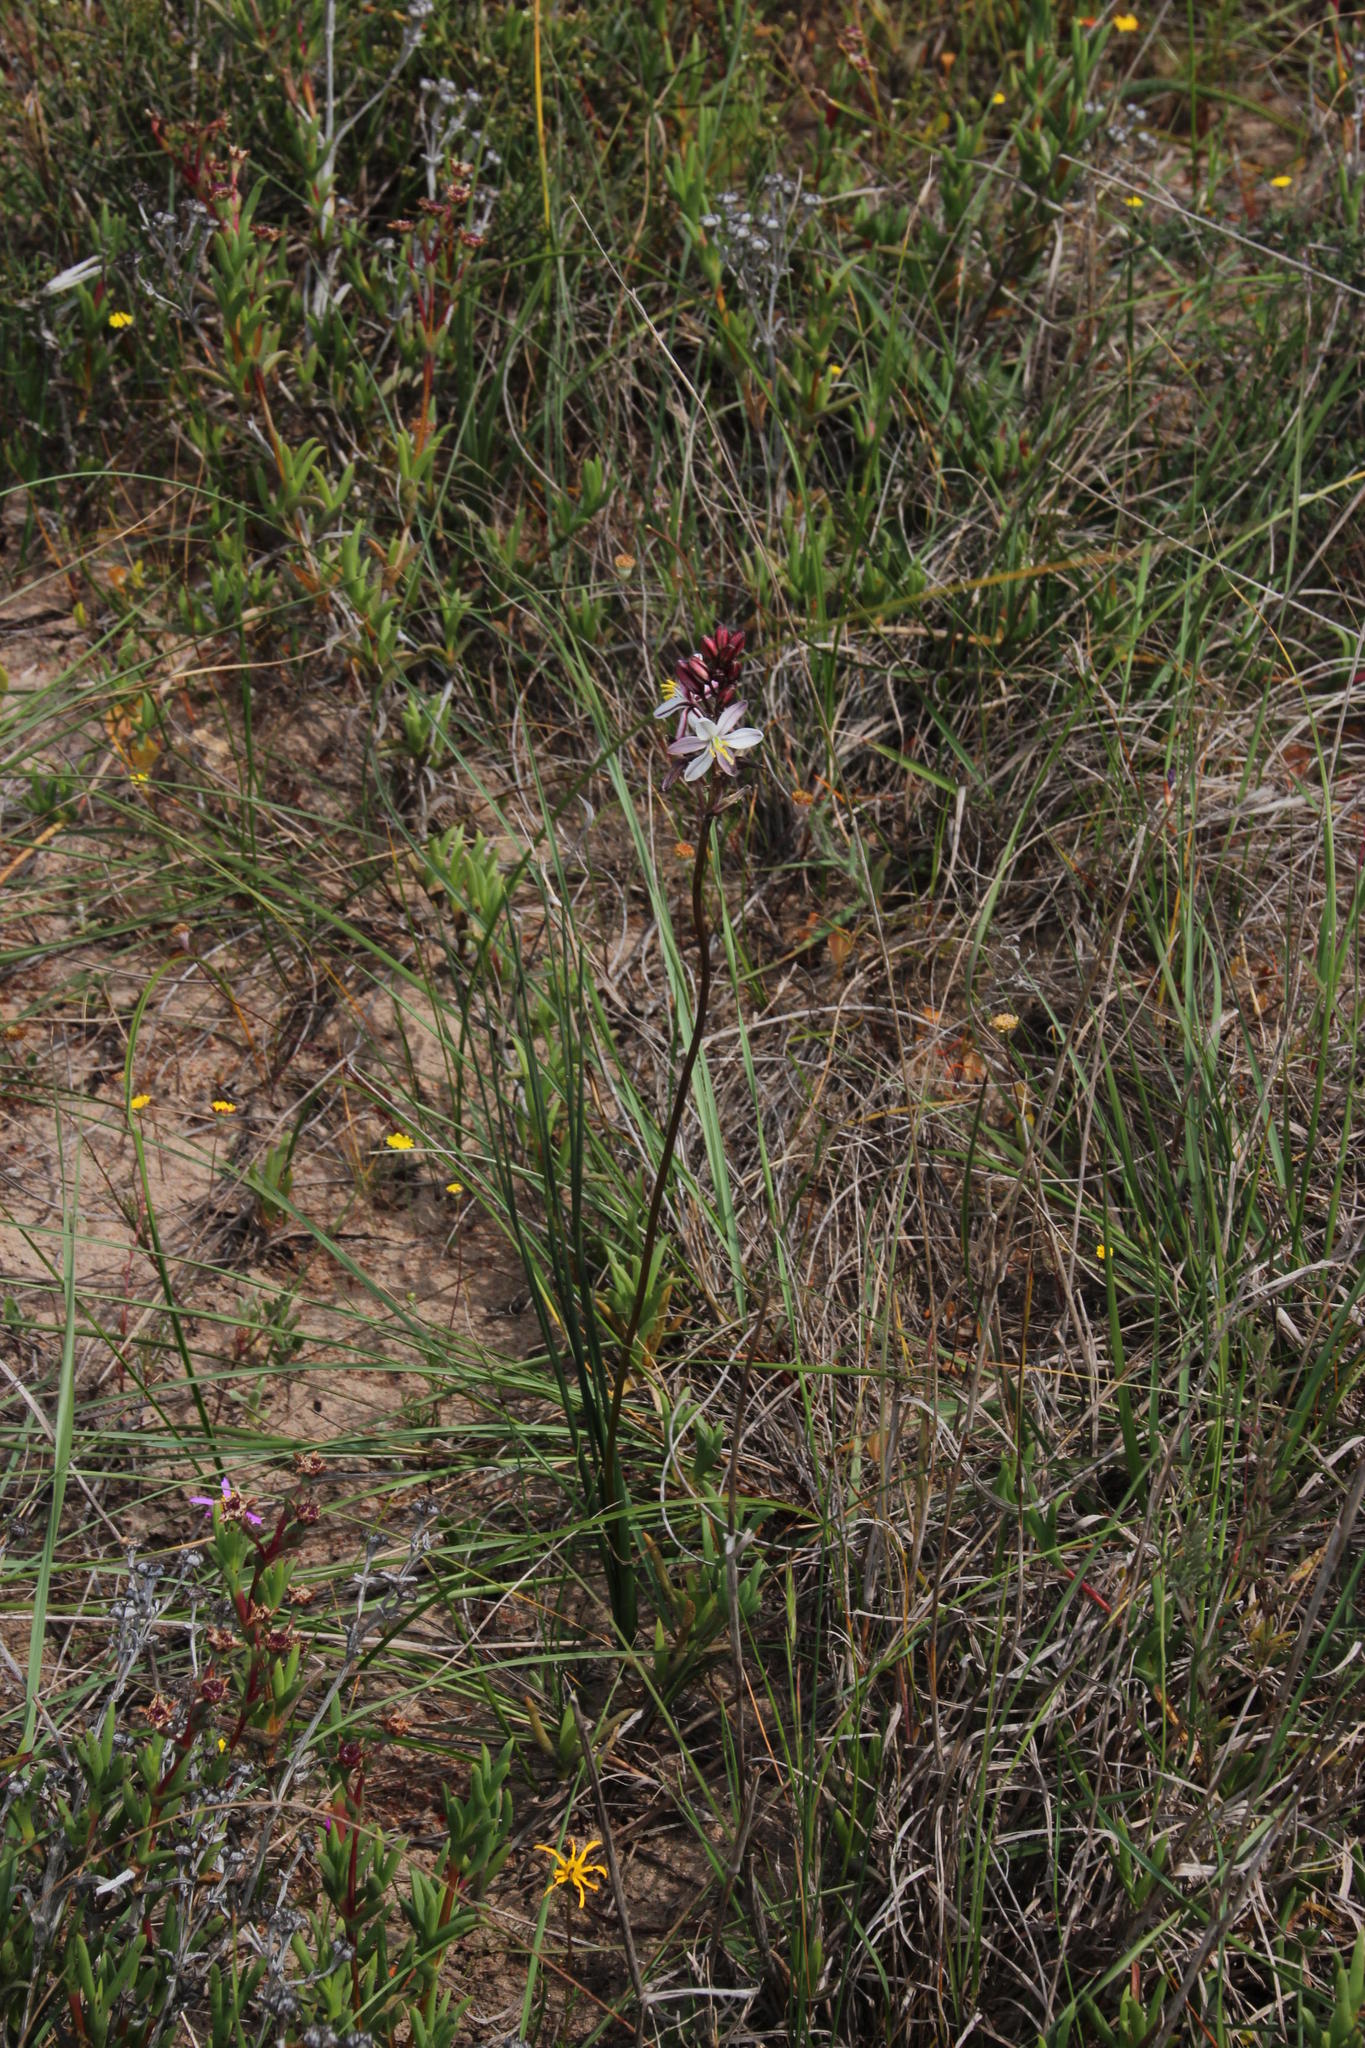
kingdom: Plantae
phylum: Tracheophyta
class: Liliopsida
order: Asparagales
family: Asparagaceae
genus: Drimia
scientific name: Drimia exuviata
